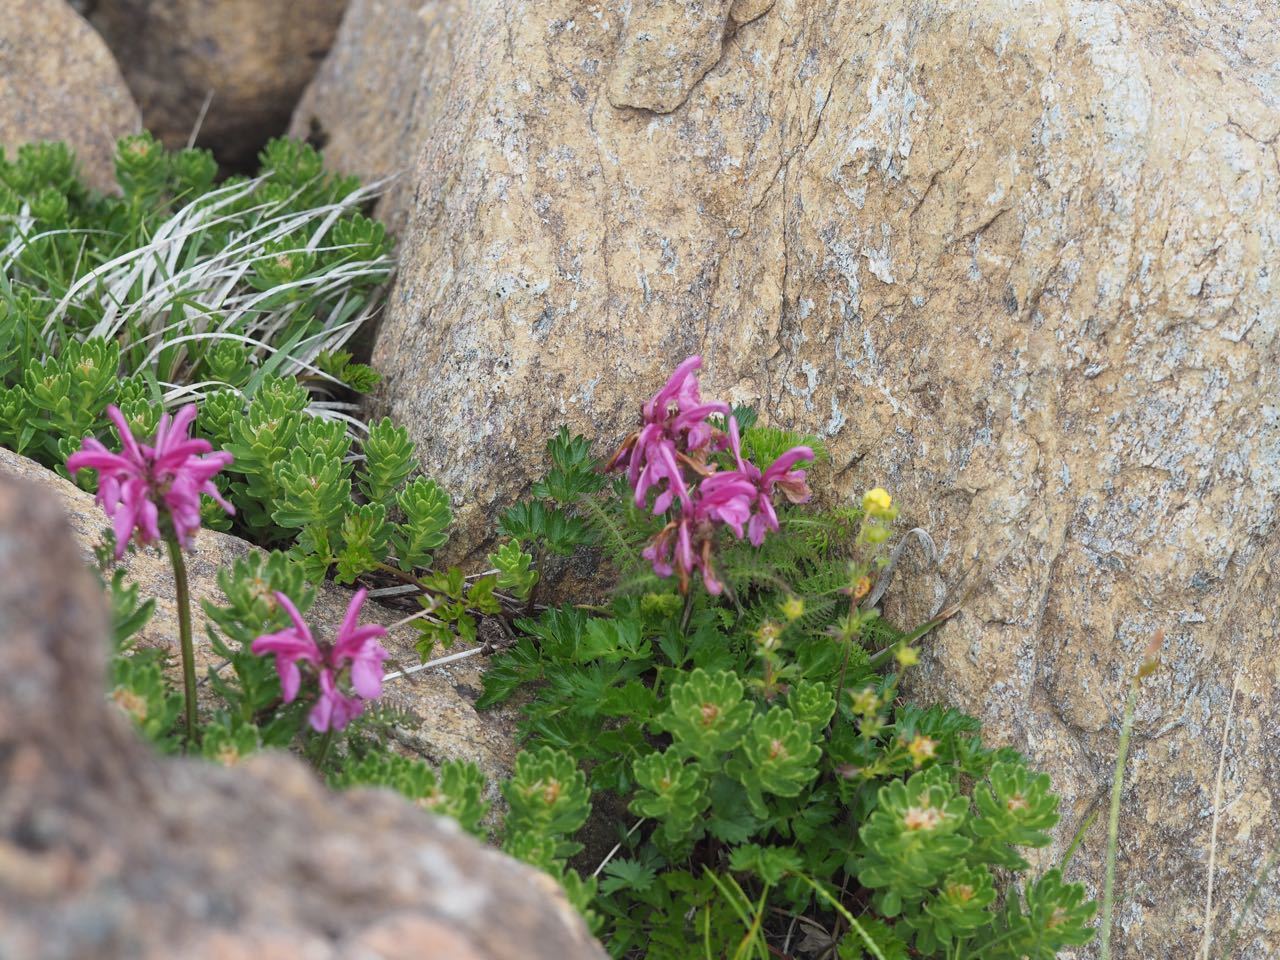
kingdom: Plantae
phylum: Tracheophyta
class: Magnoliopsida
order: Lamiales
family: Orobanchaceae
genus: Pedicularis
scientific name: Pedicularis apodochila
